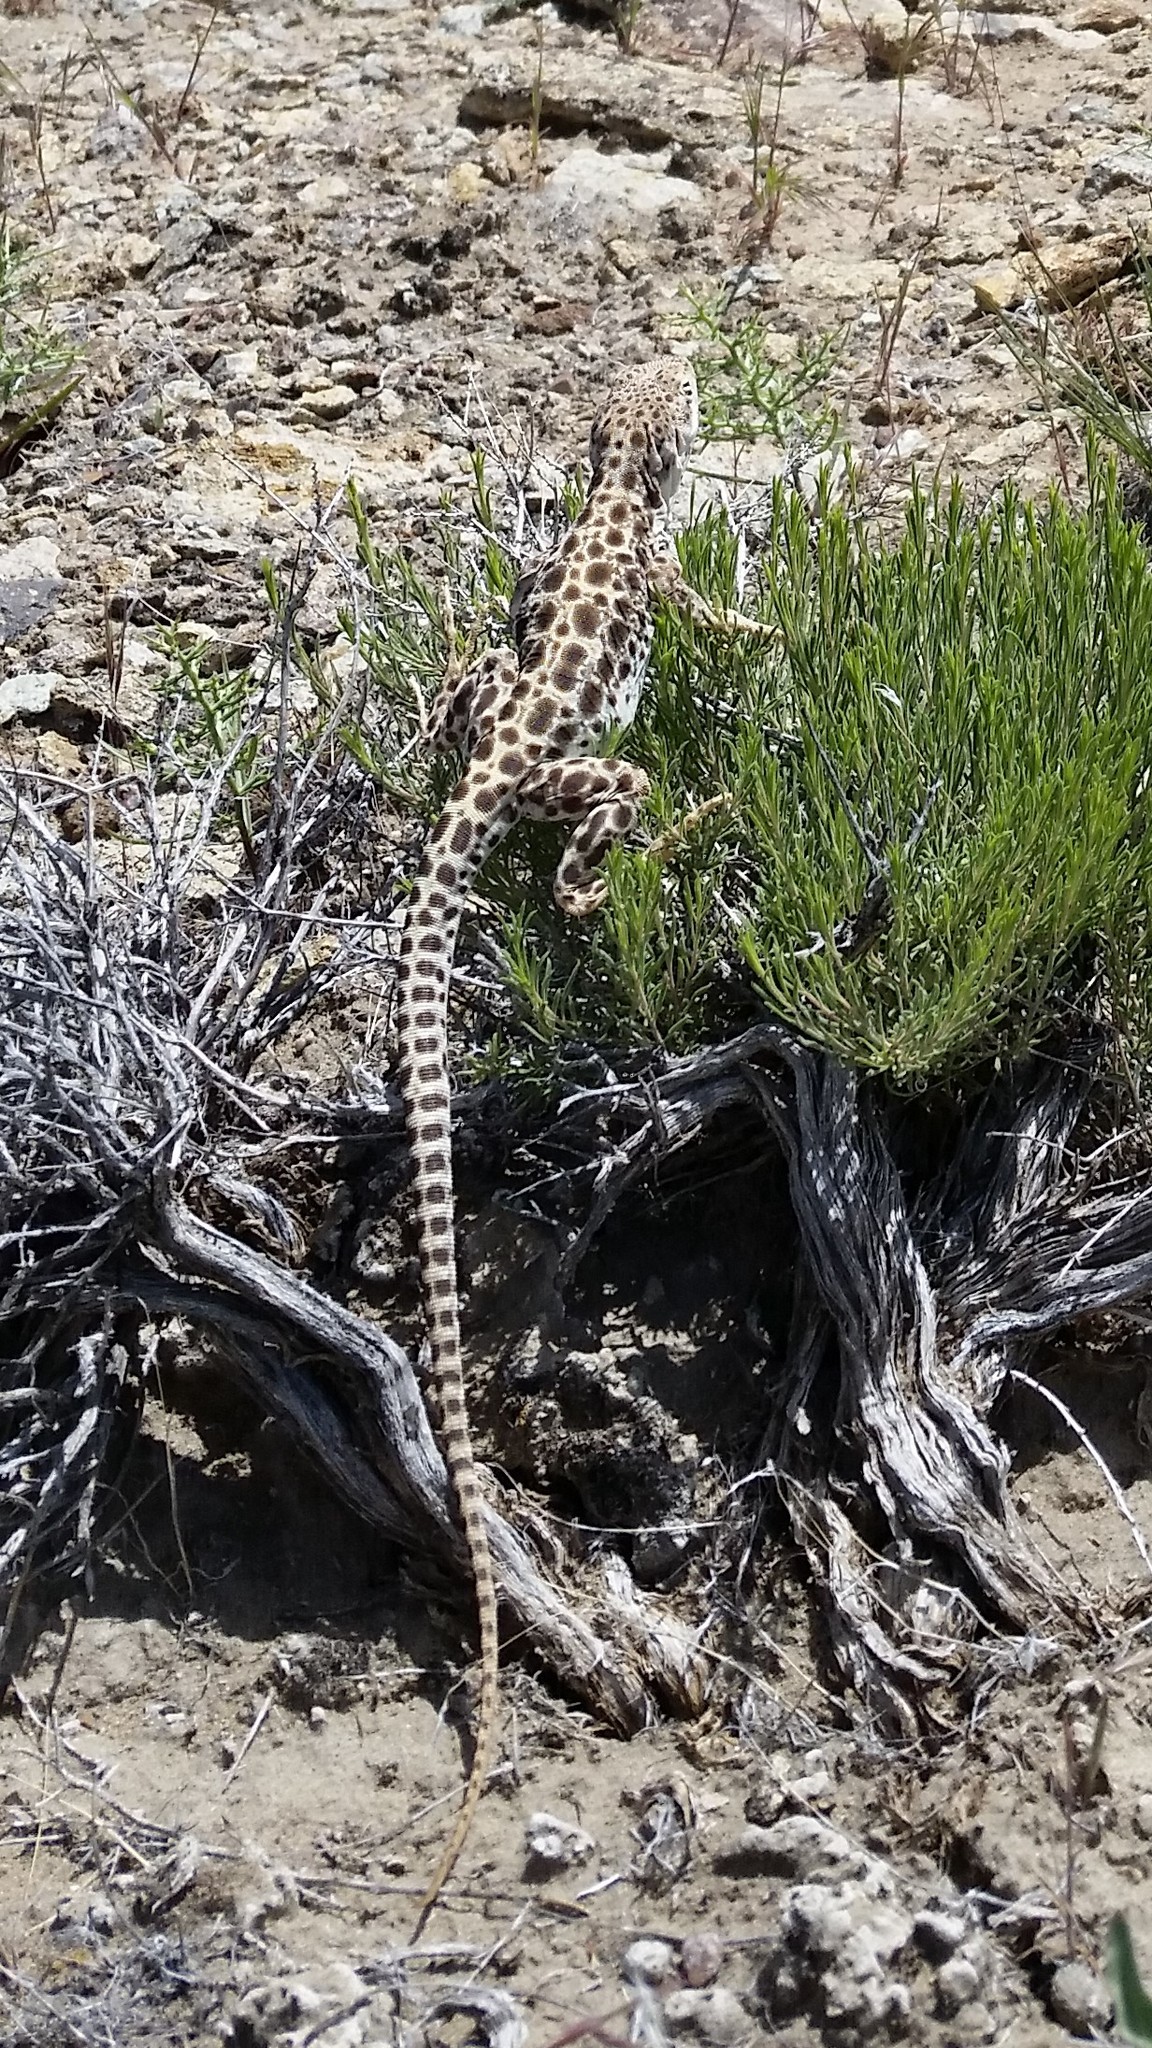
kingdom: Animalia
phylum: Chordata
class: Squamata
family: Crotaphytidae
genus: Gambelia
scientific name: Gambelia wislizenii
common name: Longnose leopard lizard
